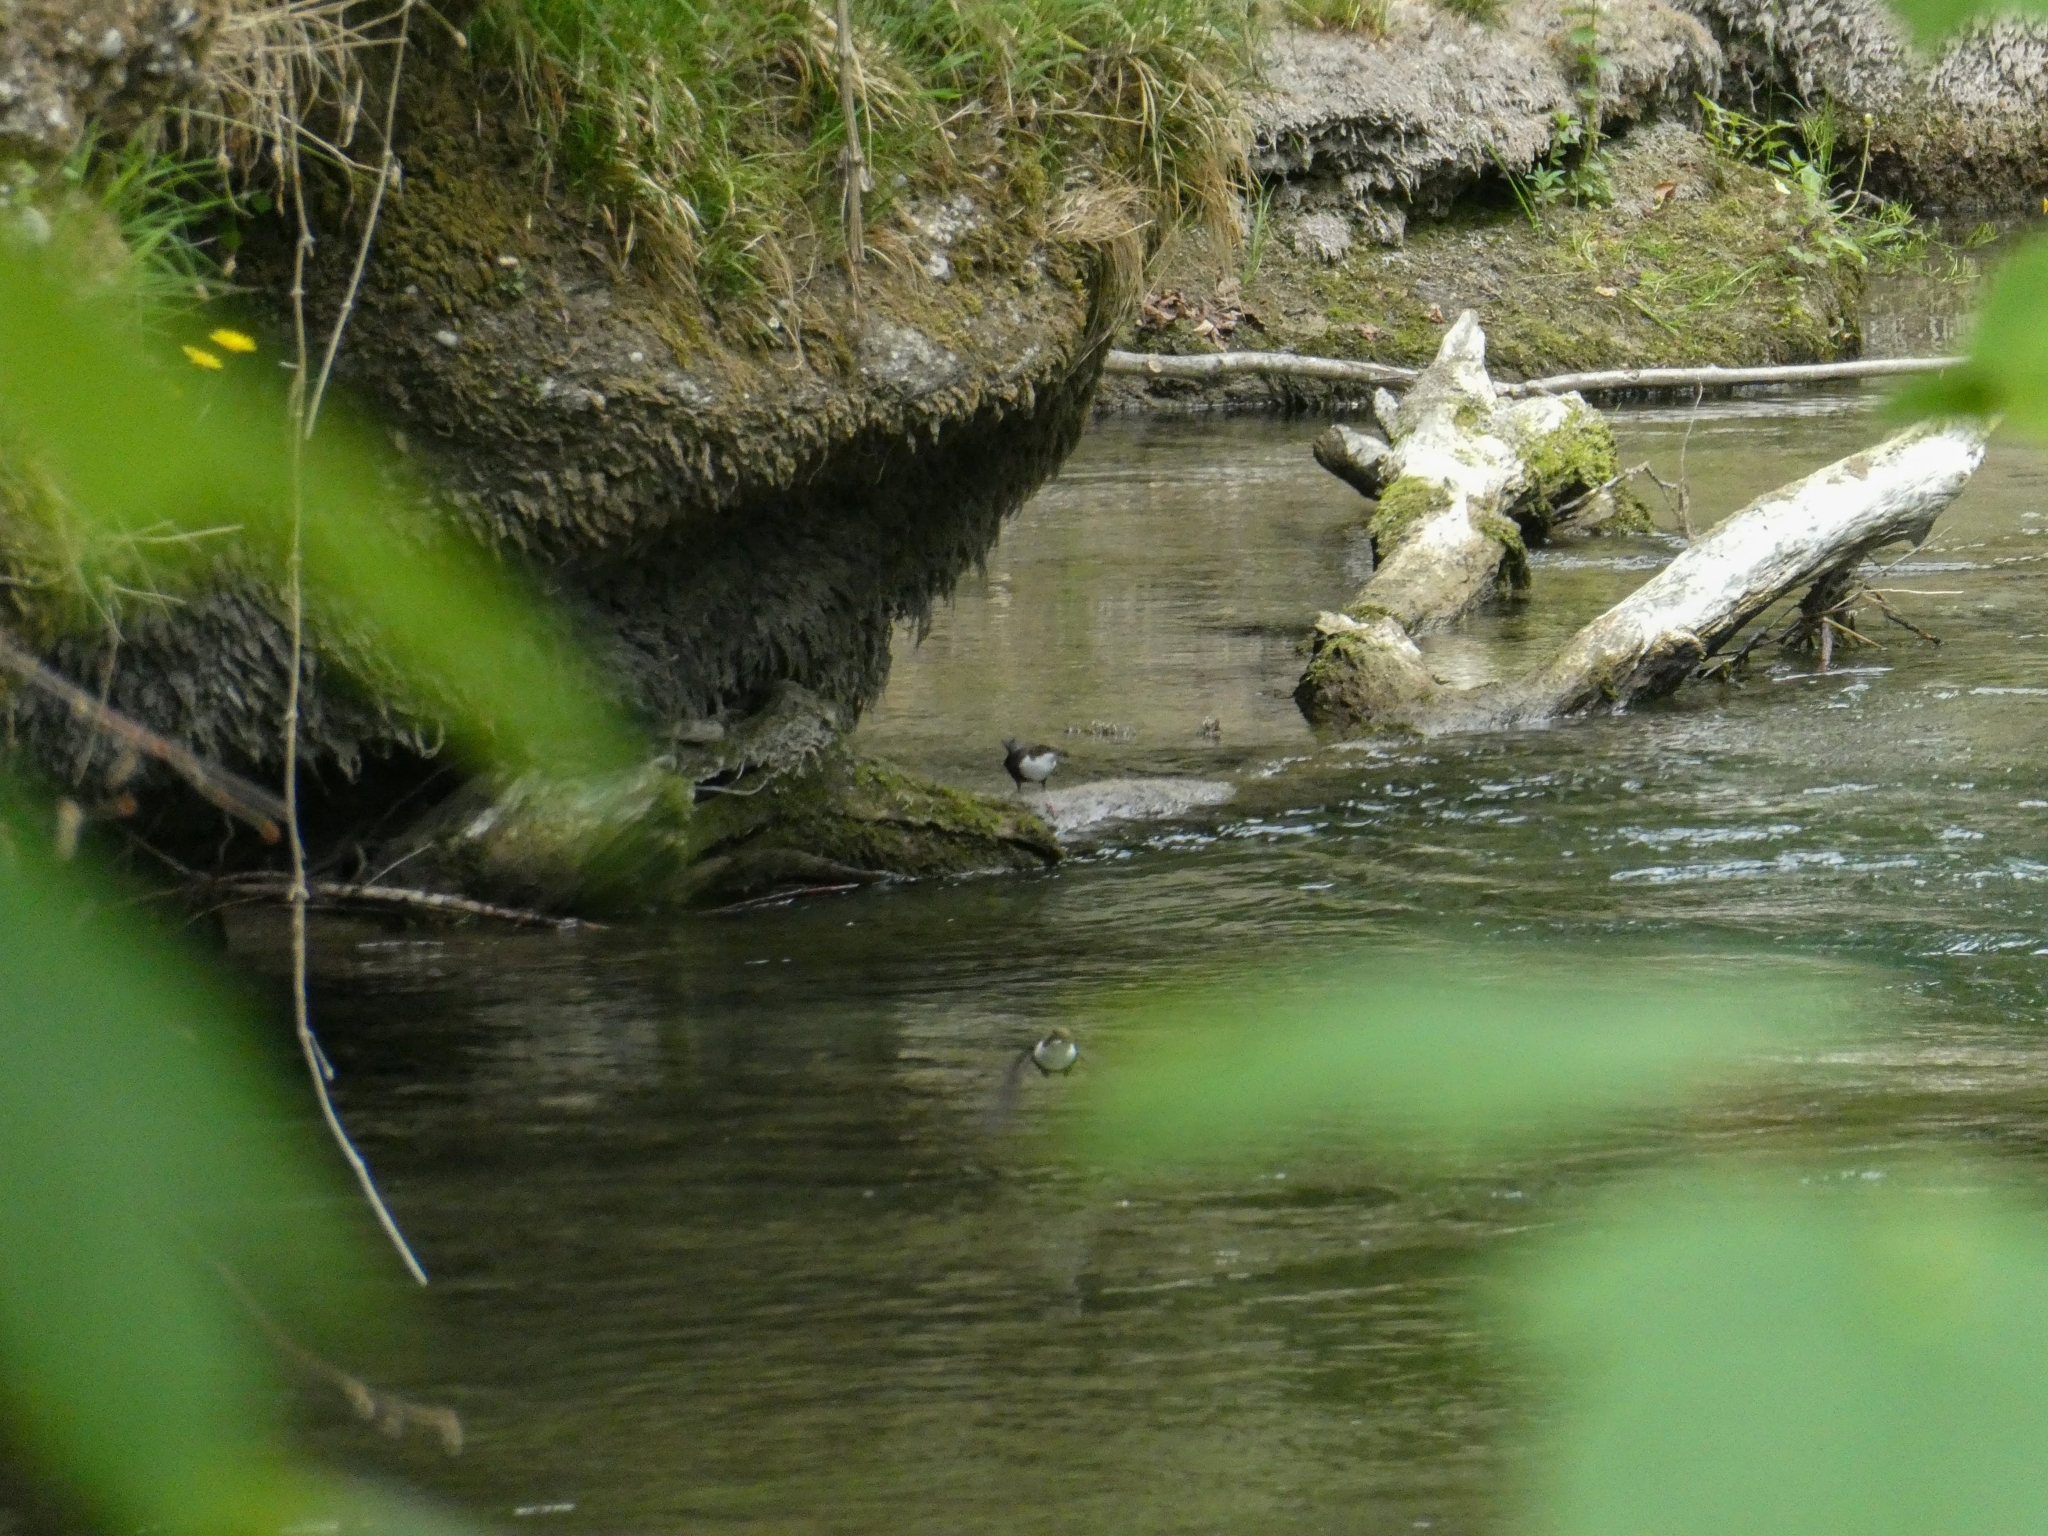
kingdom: Animalia
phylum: Chordata
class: Aves
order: Passeriformes
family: Cinclidae
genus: Cinclus
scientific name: Cinclus cinclus
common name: White-throated dipper
